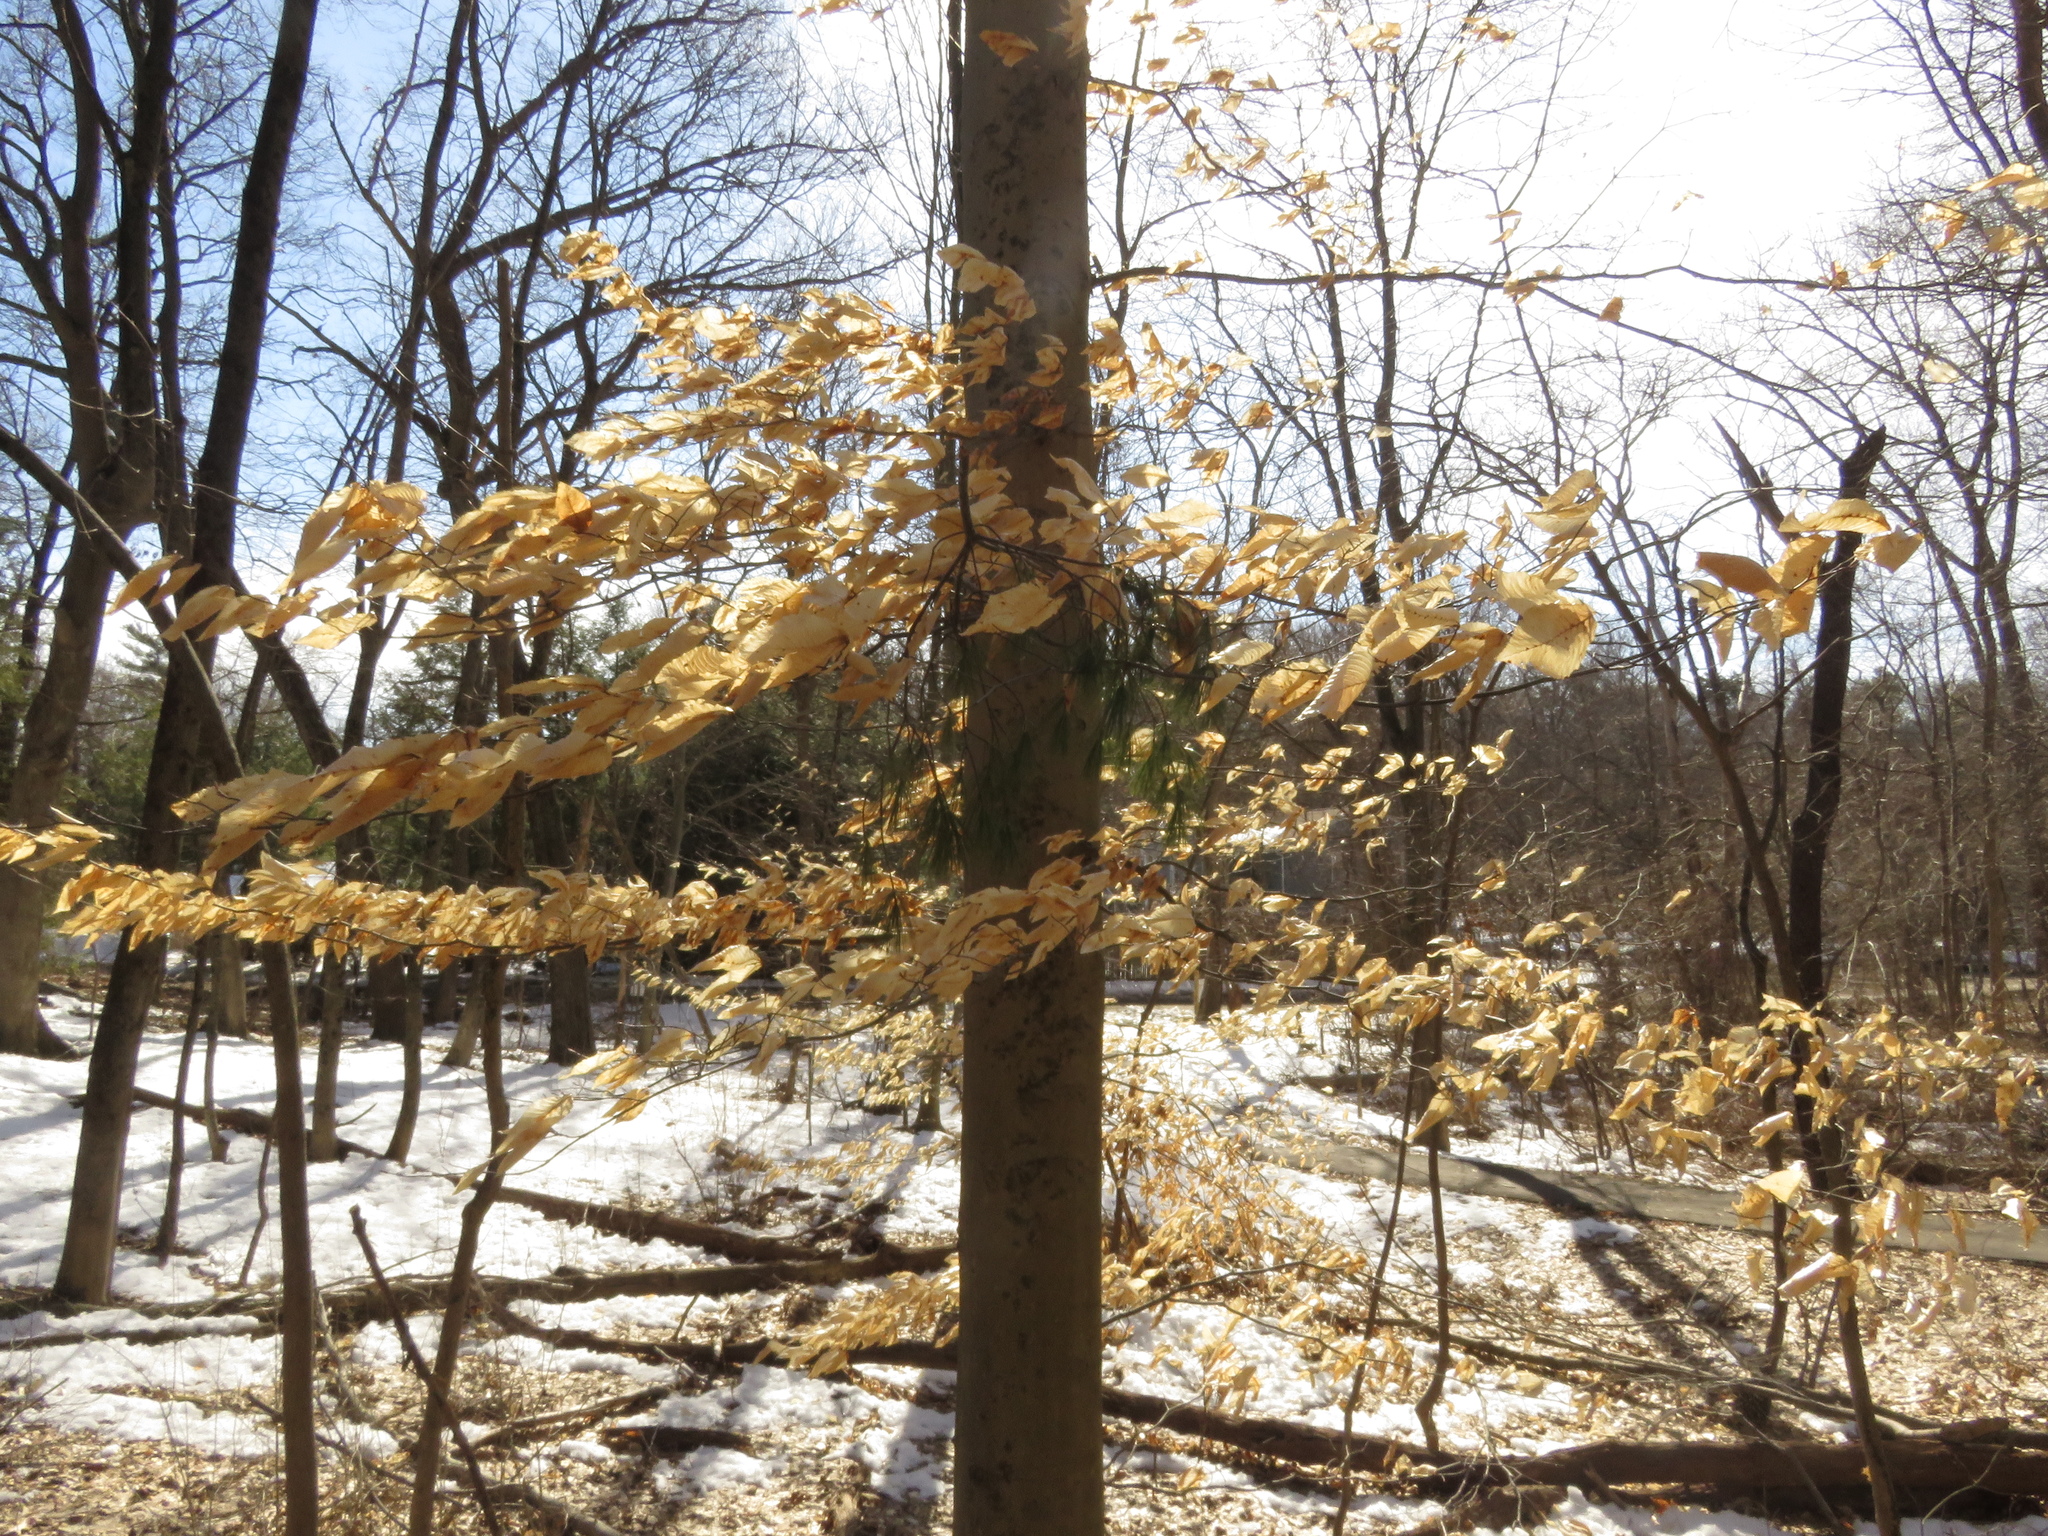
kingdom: Plantae
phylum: Tracheophyta
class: Magnoliopsida
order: Fagales
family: Fagaceae
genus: Fagus
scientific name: Fagus grandifolia
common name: American beech
